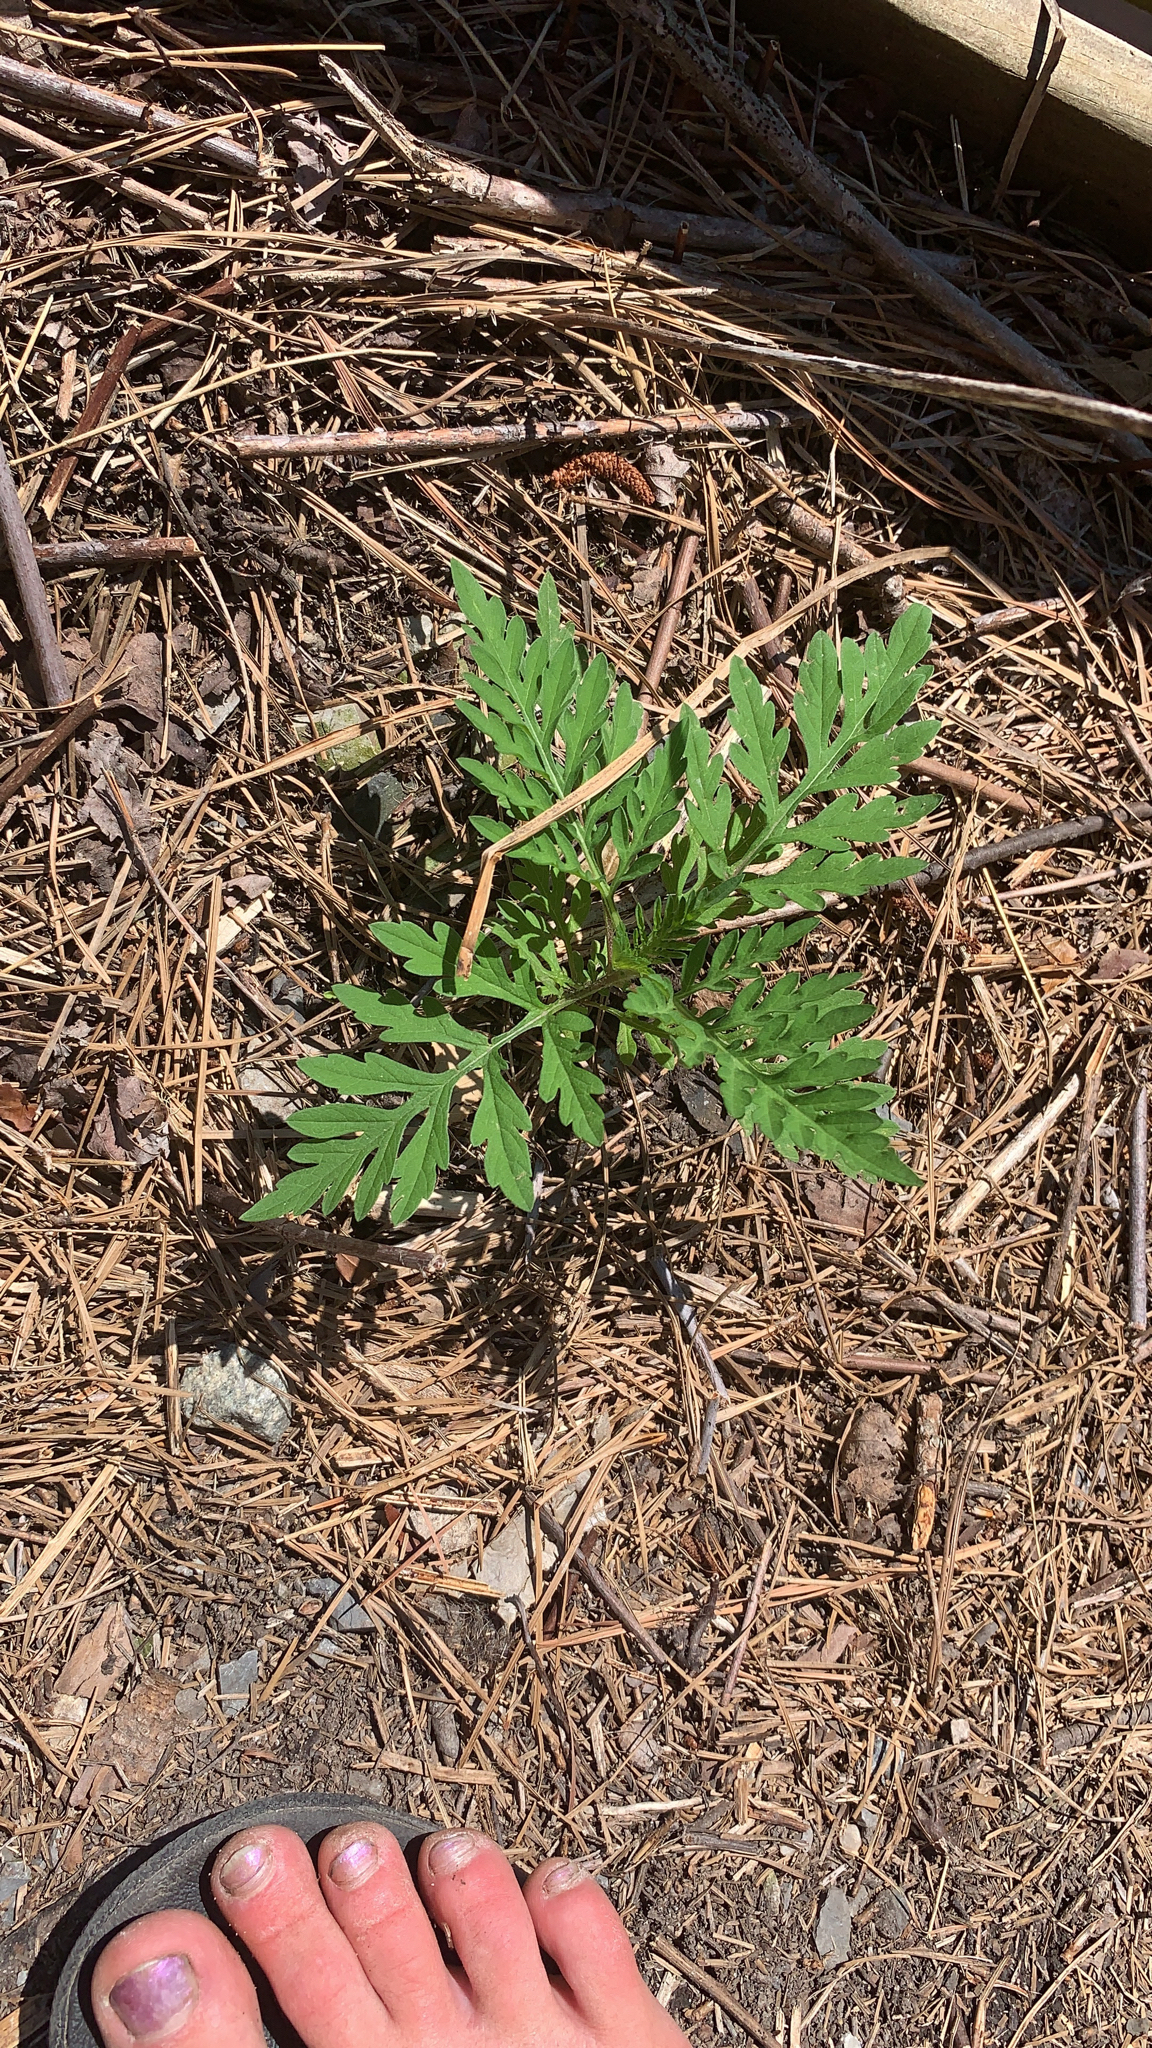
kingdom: Plantae
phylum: Tracheophyta
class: Magnoliopsida
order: Asterales
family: Asteraceae
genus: Ambrosia
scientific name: Ambrosia artemisiifolia
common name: Annual ragweed
